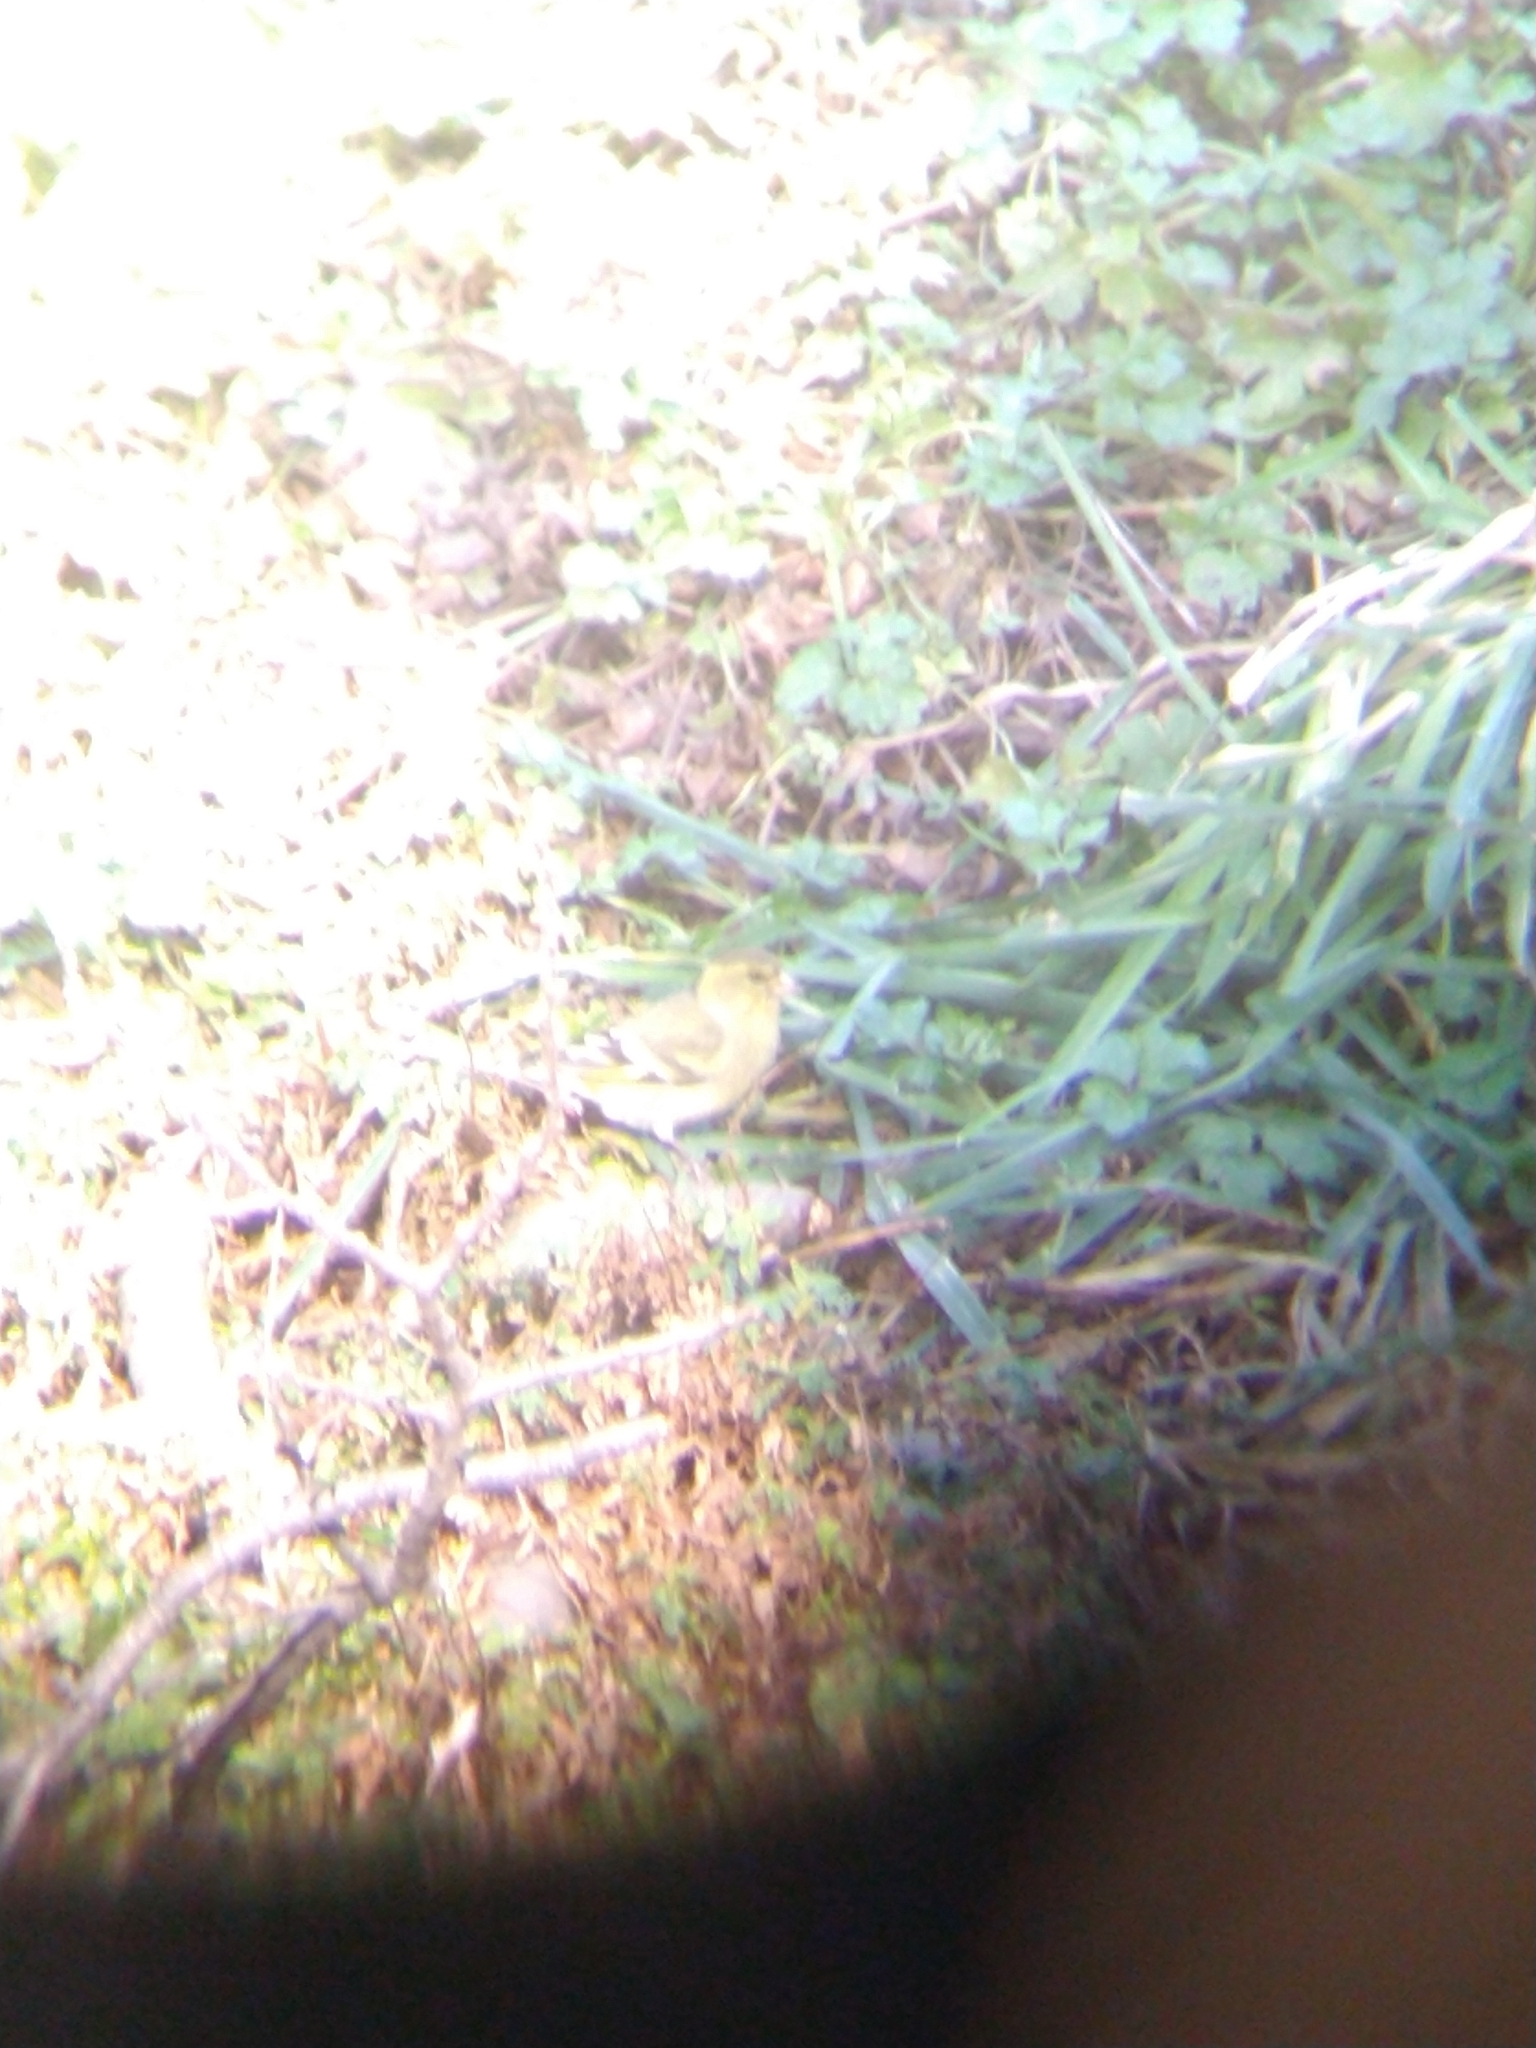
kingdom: Animalia
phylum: Chordata
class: Aves
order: Passeriformes
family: Fringillidae
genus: Spinus
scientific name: Spinus barbatus
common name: Black-chinned siskin
